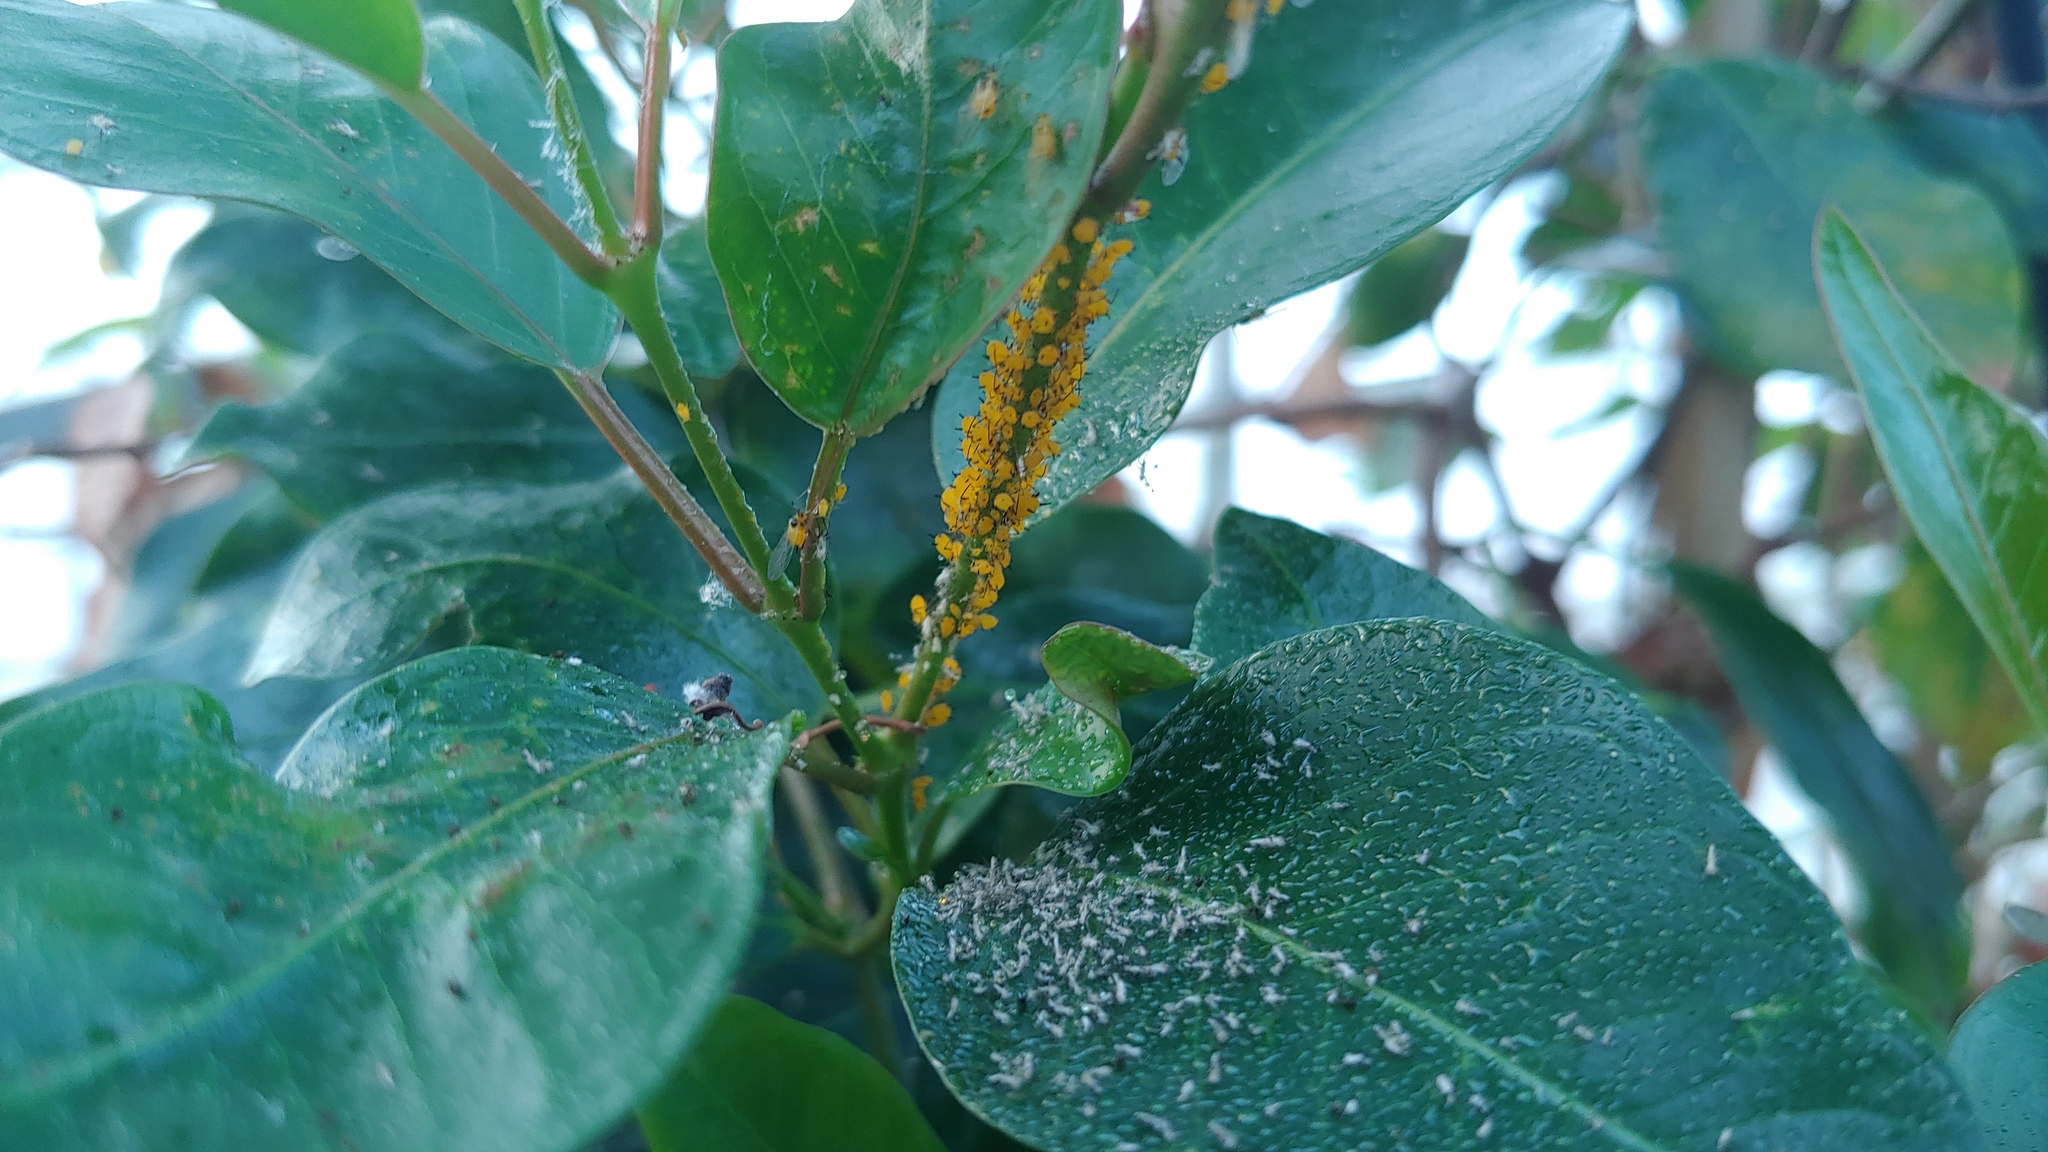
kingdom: Animalia
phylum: Arthropoda
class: Insecta
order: Hemiptera
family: Aphididae
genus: Aphis
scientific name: Aphis nerii
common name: Oleander aphid
